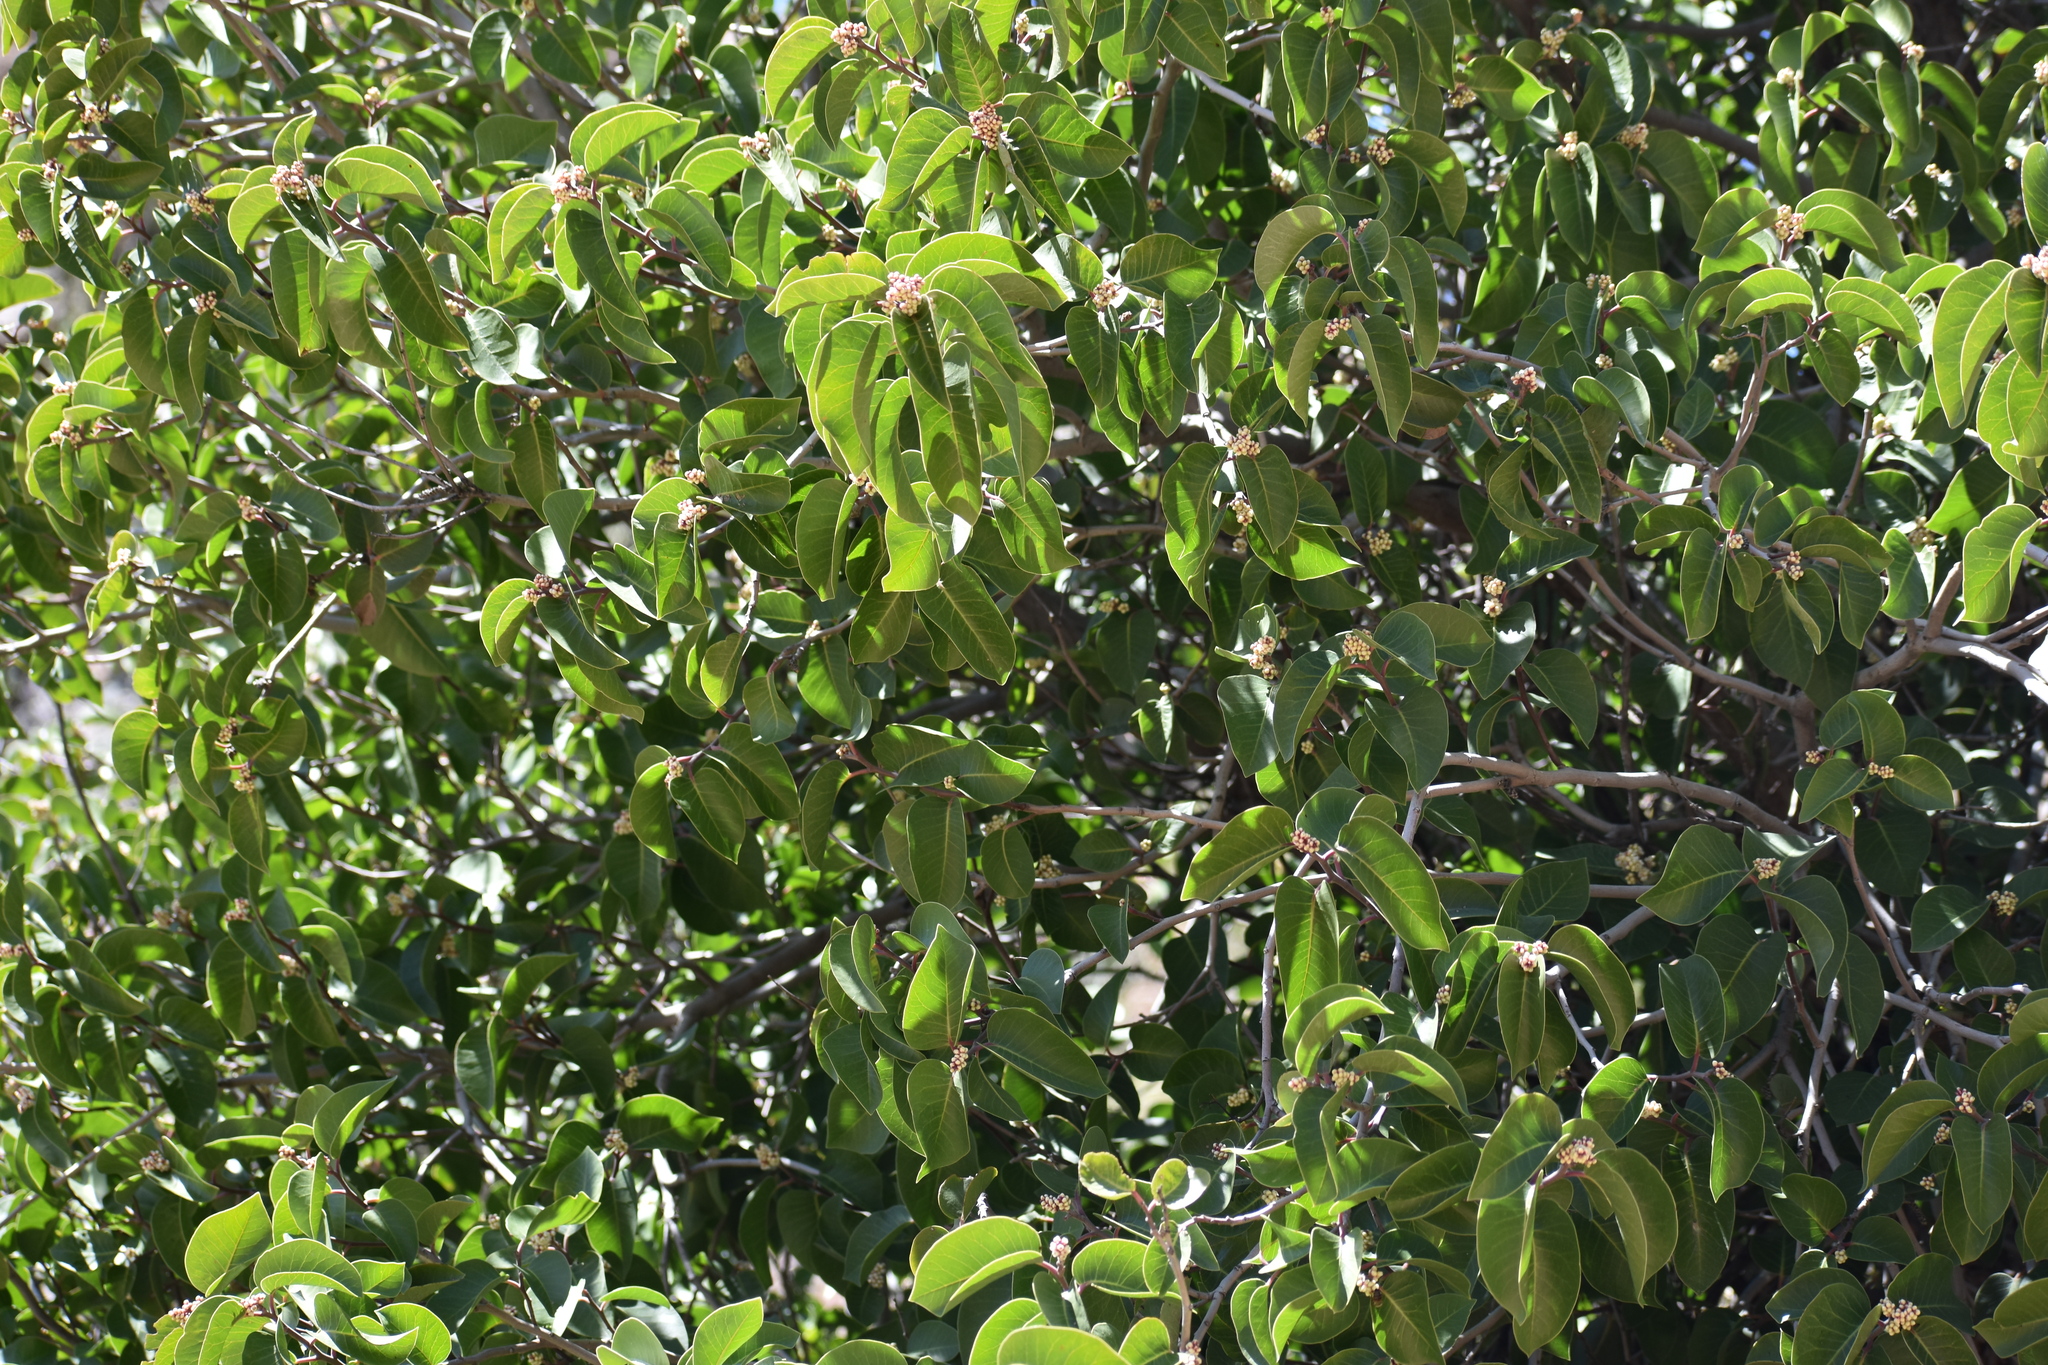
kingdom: Plantae
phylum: Tracheophyta
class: Magnoliopsida
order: Sapindales
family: Anacardiaceae
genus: Rhus
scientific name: Rhus ovata
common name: Sugar sumac
